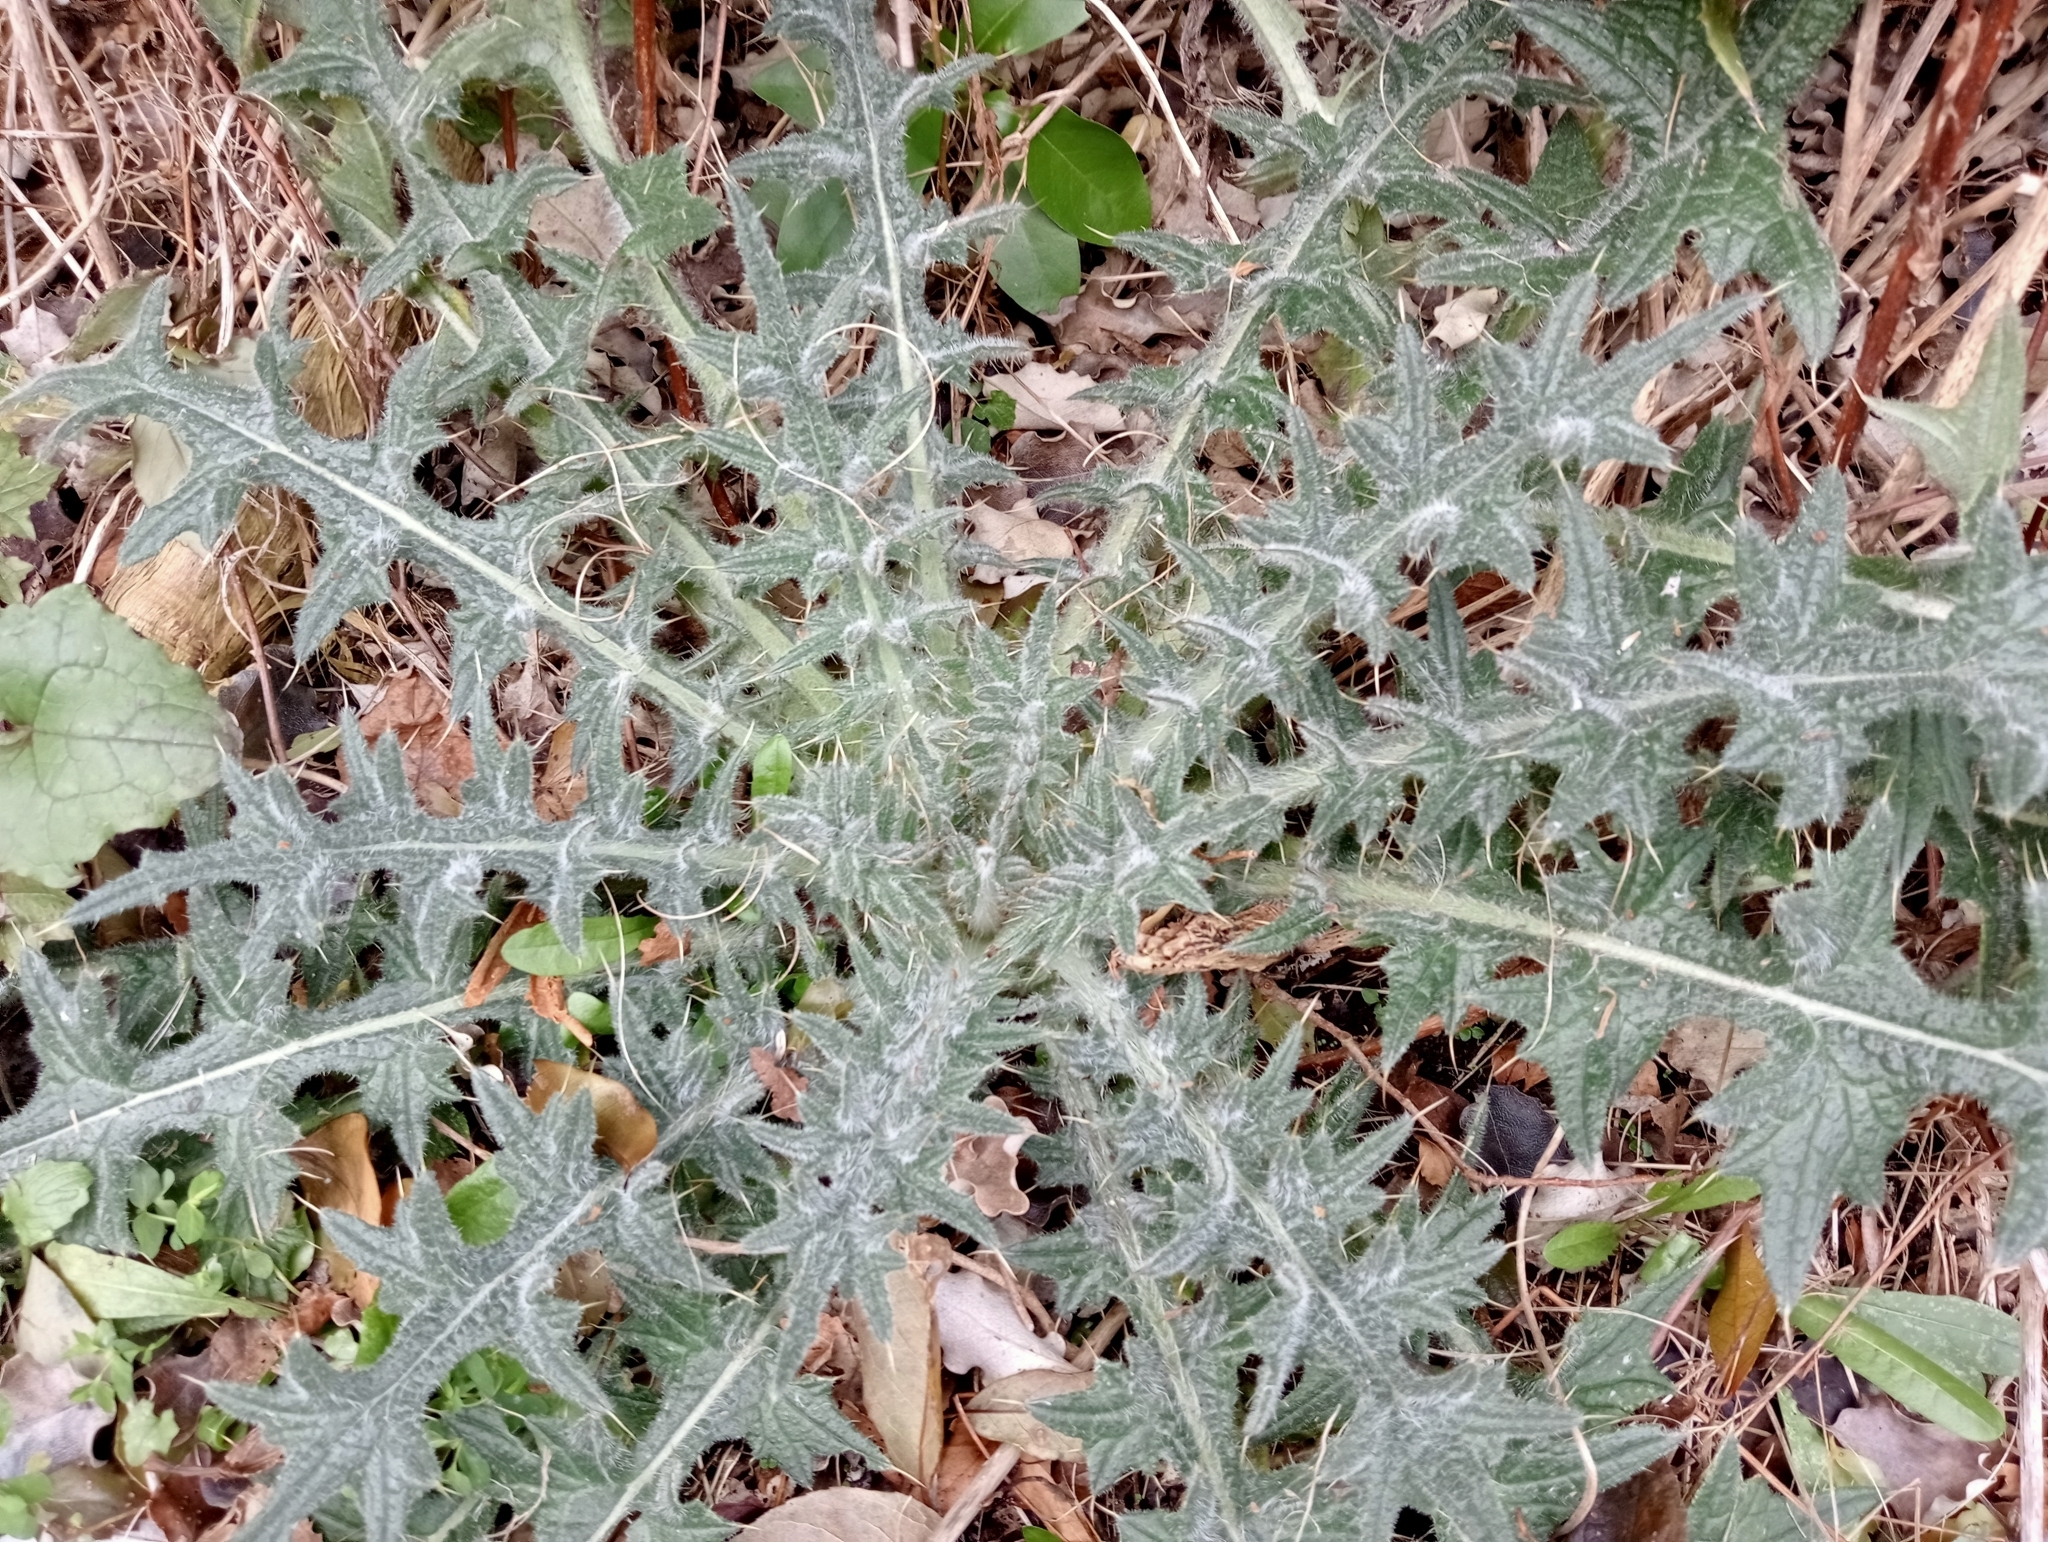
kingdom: Plantae
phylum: Tracheophyta
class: Magnoliopsida
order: Asterales
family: Asteraceae
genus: Cirsium
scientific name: Cirsium vulgare
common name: Bull thistle
